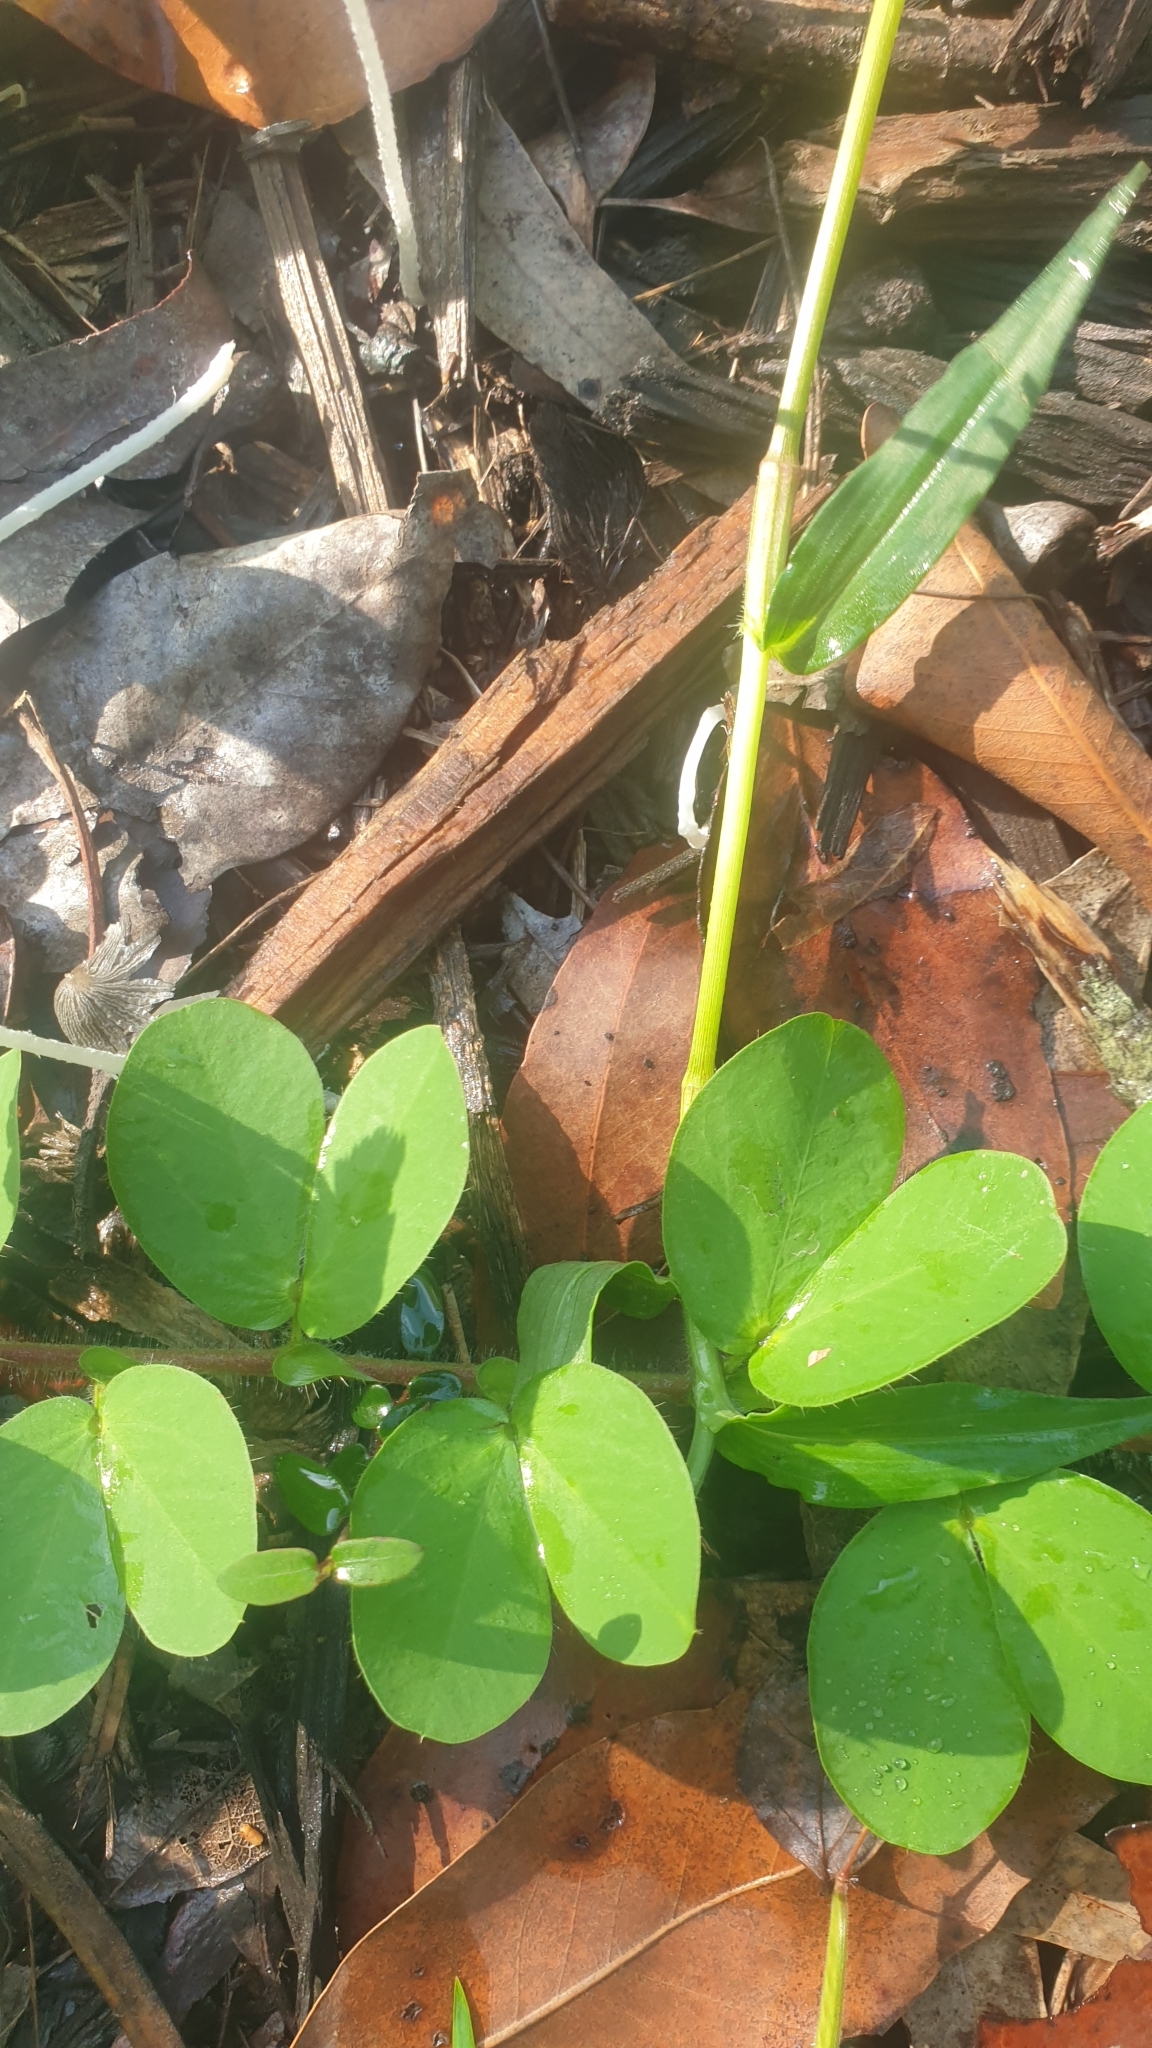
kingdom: Plantae
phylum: Tracheophyta
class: Magnoliopsida
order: Fabales
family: Fabaceae
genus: Chamaecrista
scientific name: Chamaecrista rotundifolia
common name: Round-leaf cassia
